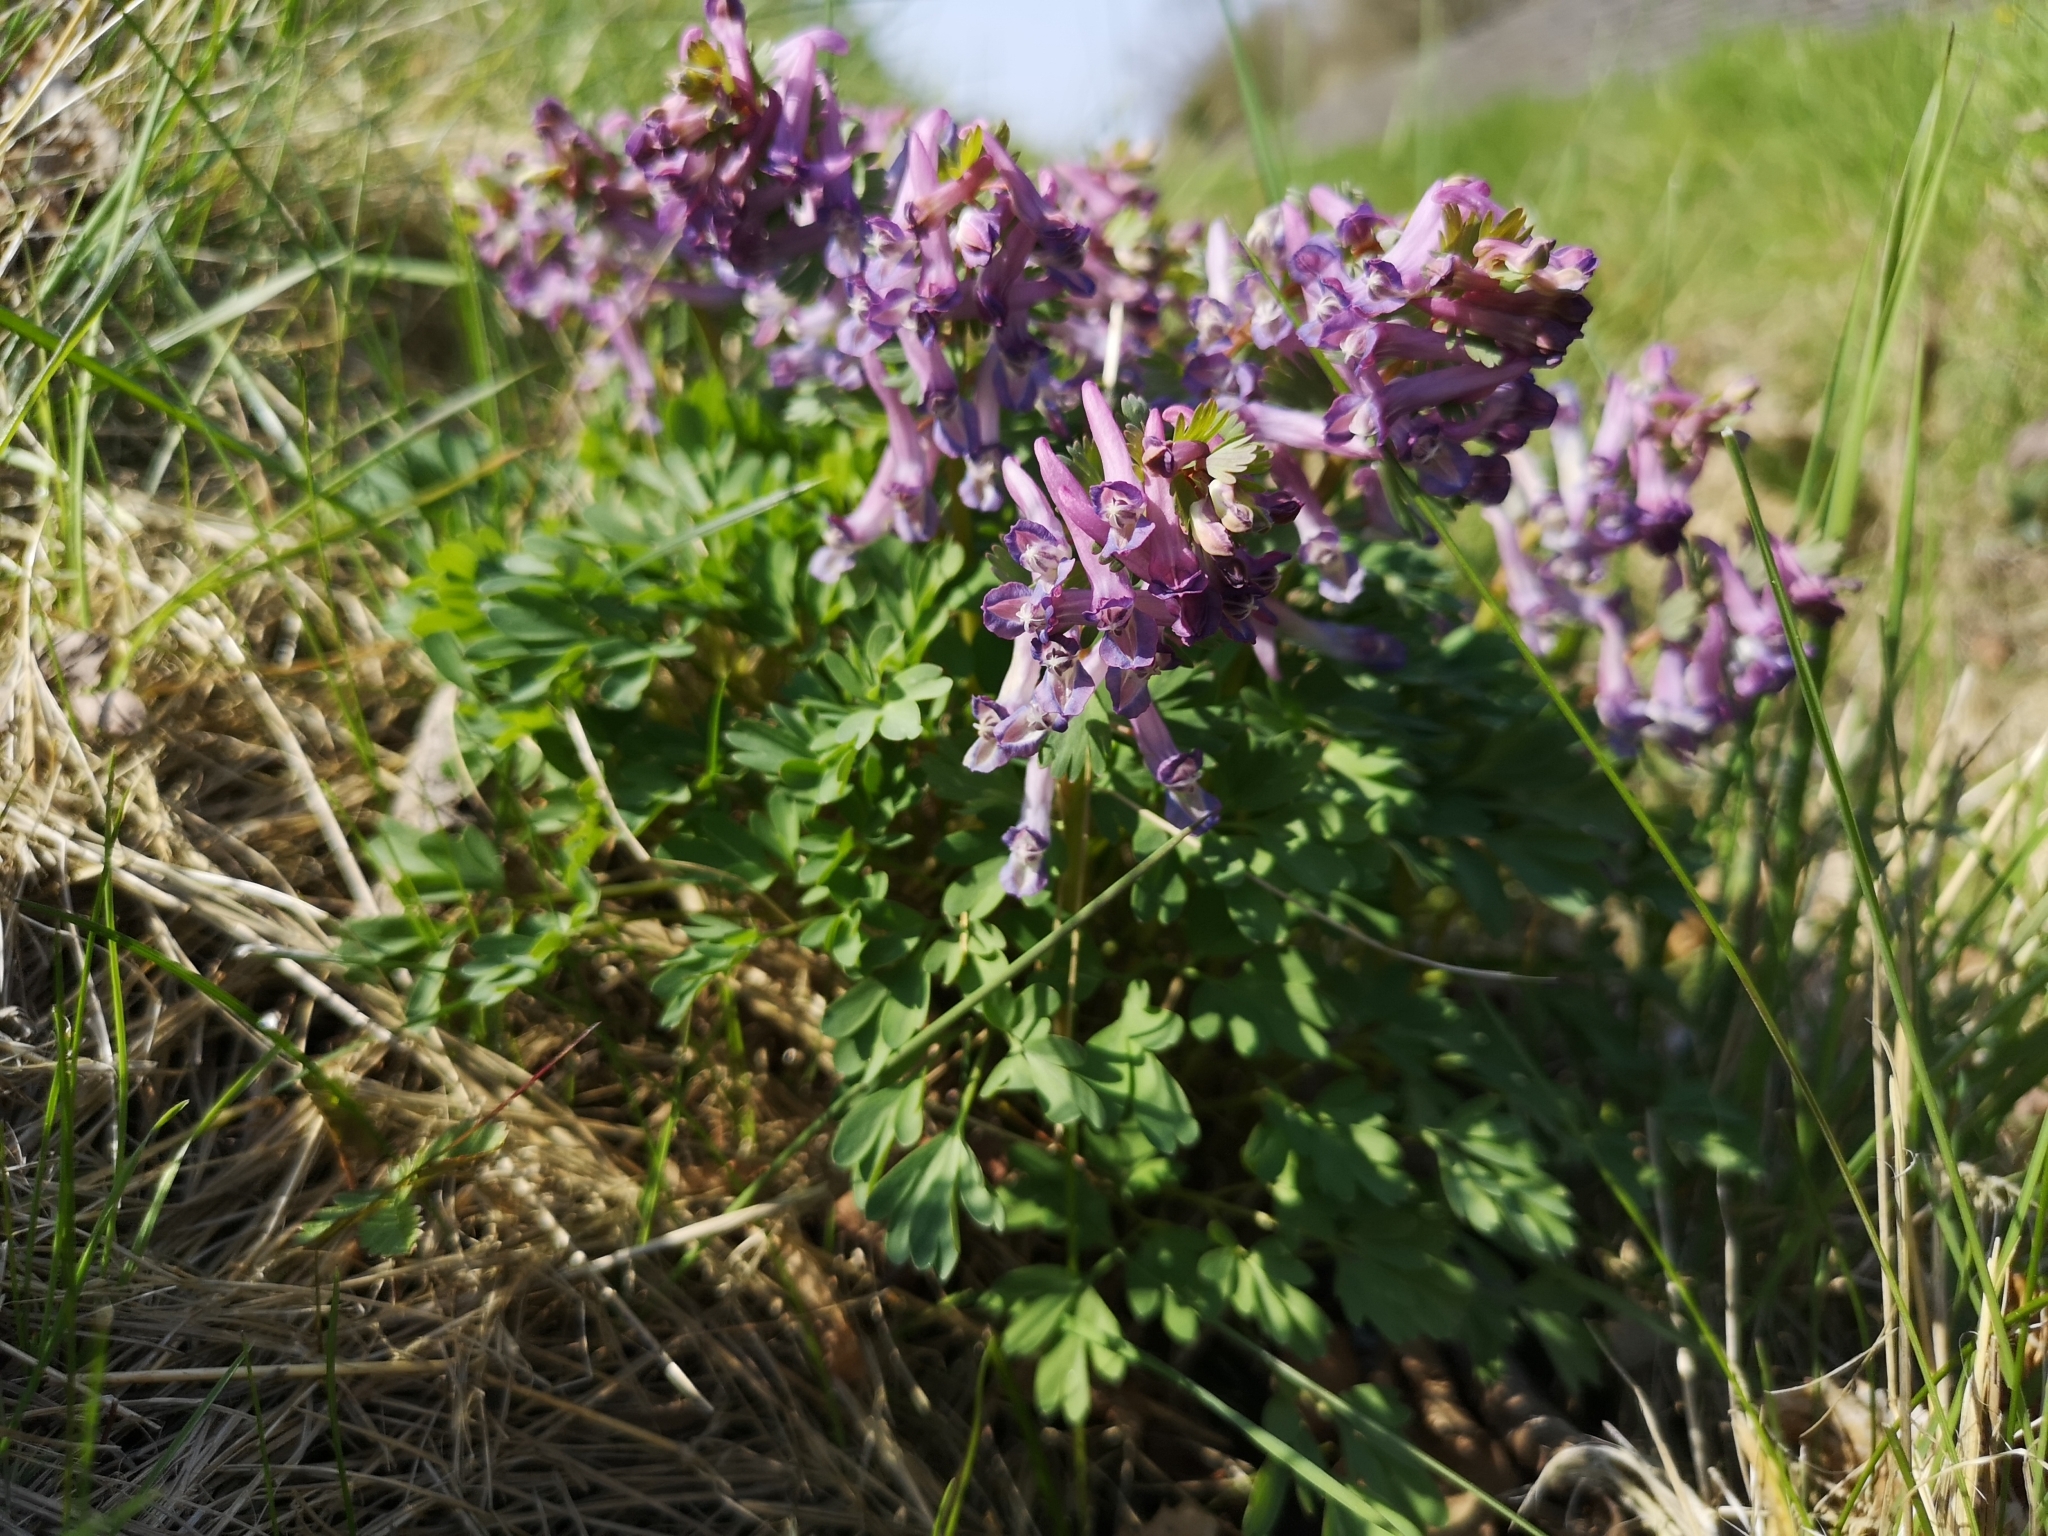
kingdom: Plantae
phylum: Tracheophyta
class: Magnoliopsida
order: Ranunculales
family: Papaveraceae
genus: Corydalis
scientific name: Corydalis solida
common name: Bird-in-a-bush
